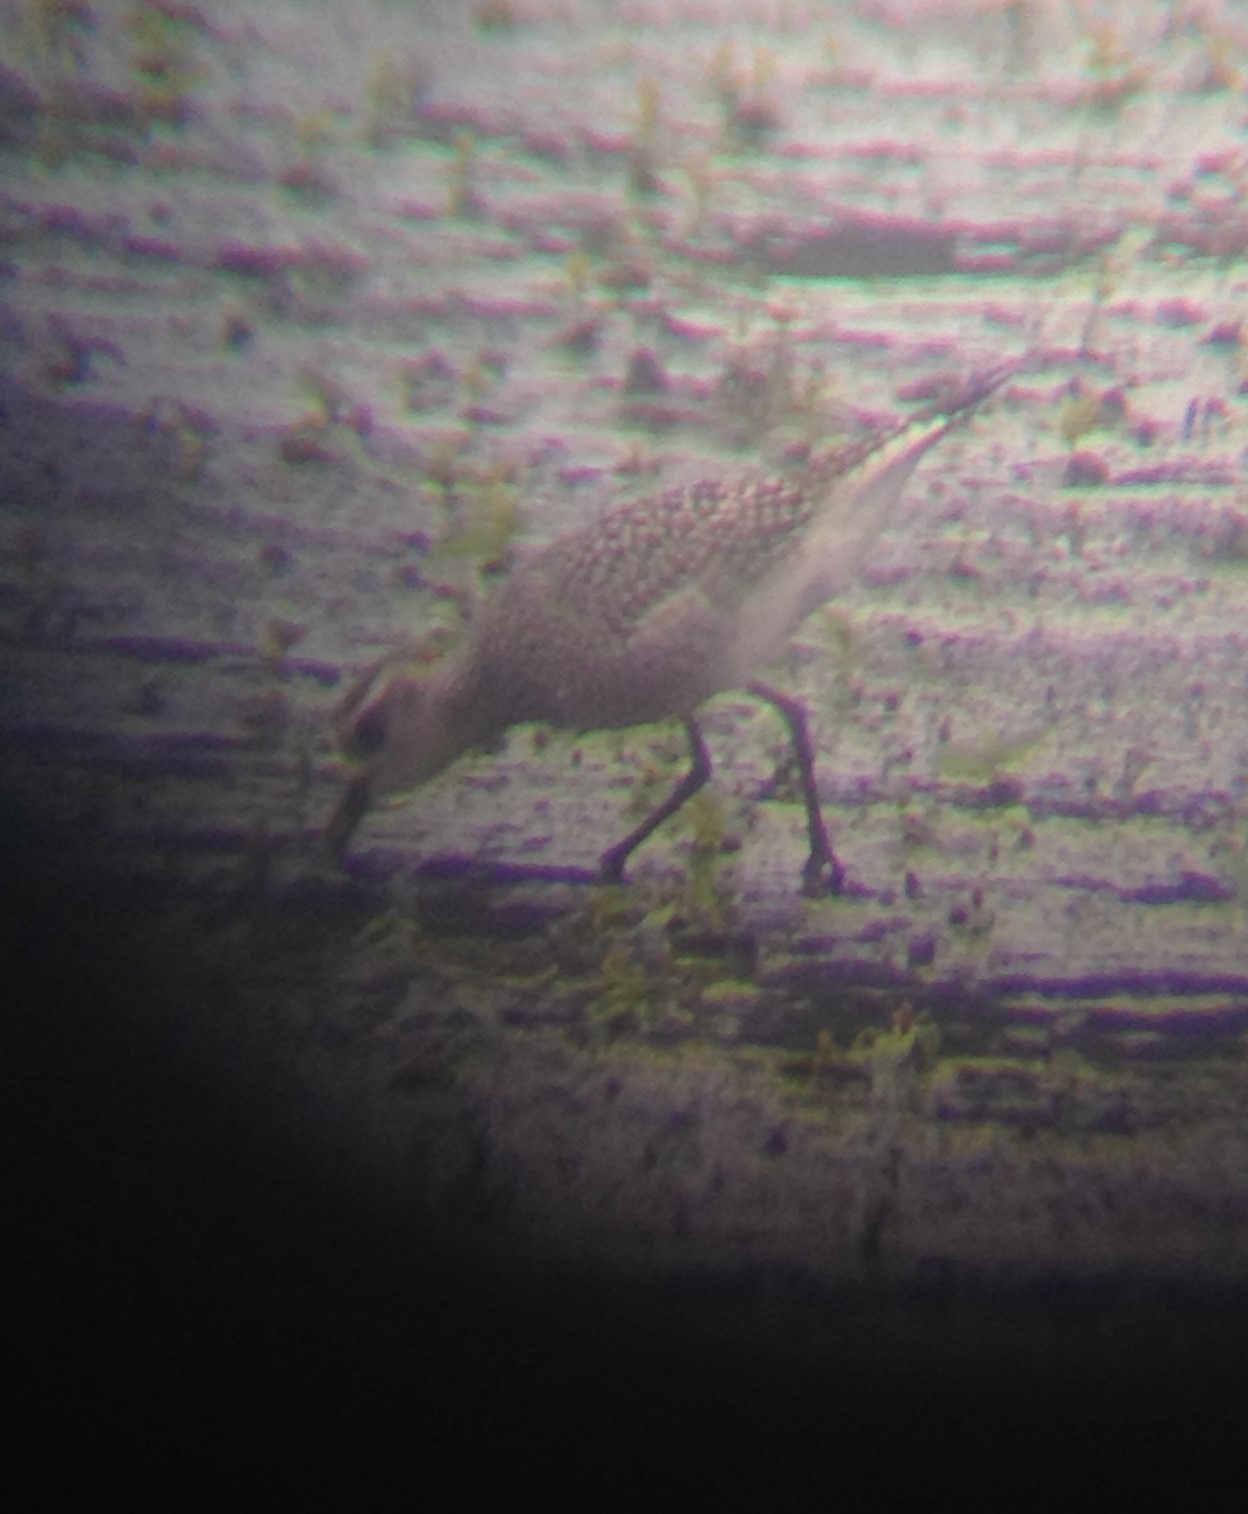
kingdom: Animalia
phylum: Chordata
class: Aves
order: Charadriiformes
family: Charadriidae
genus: Pluvialis
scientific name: Pluvialis dominica
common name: American golden plover
